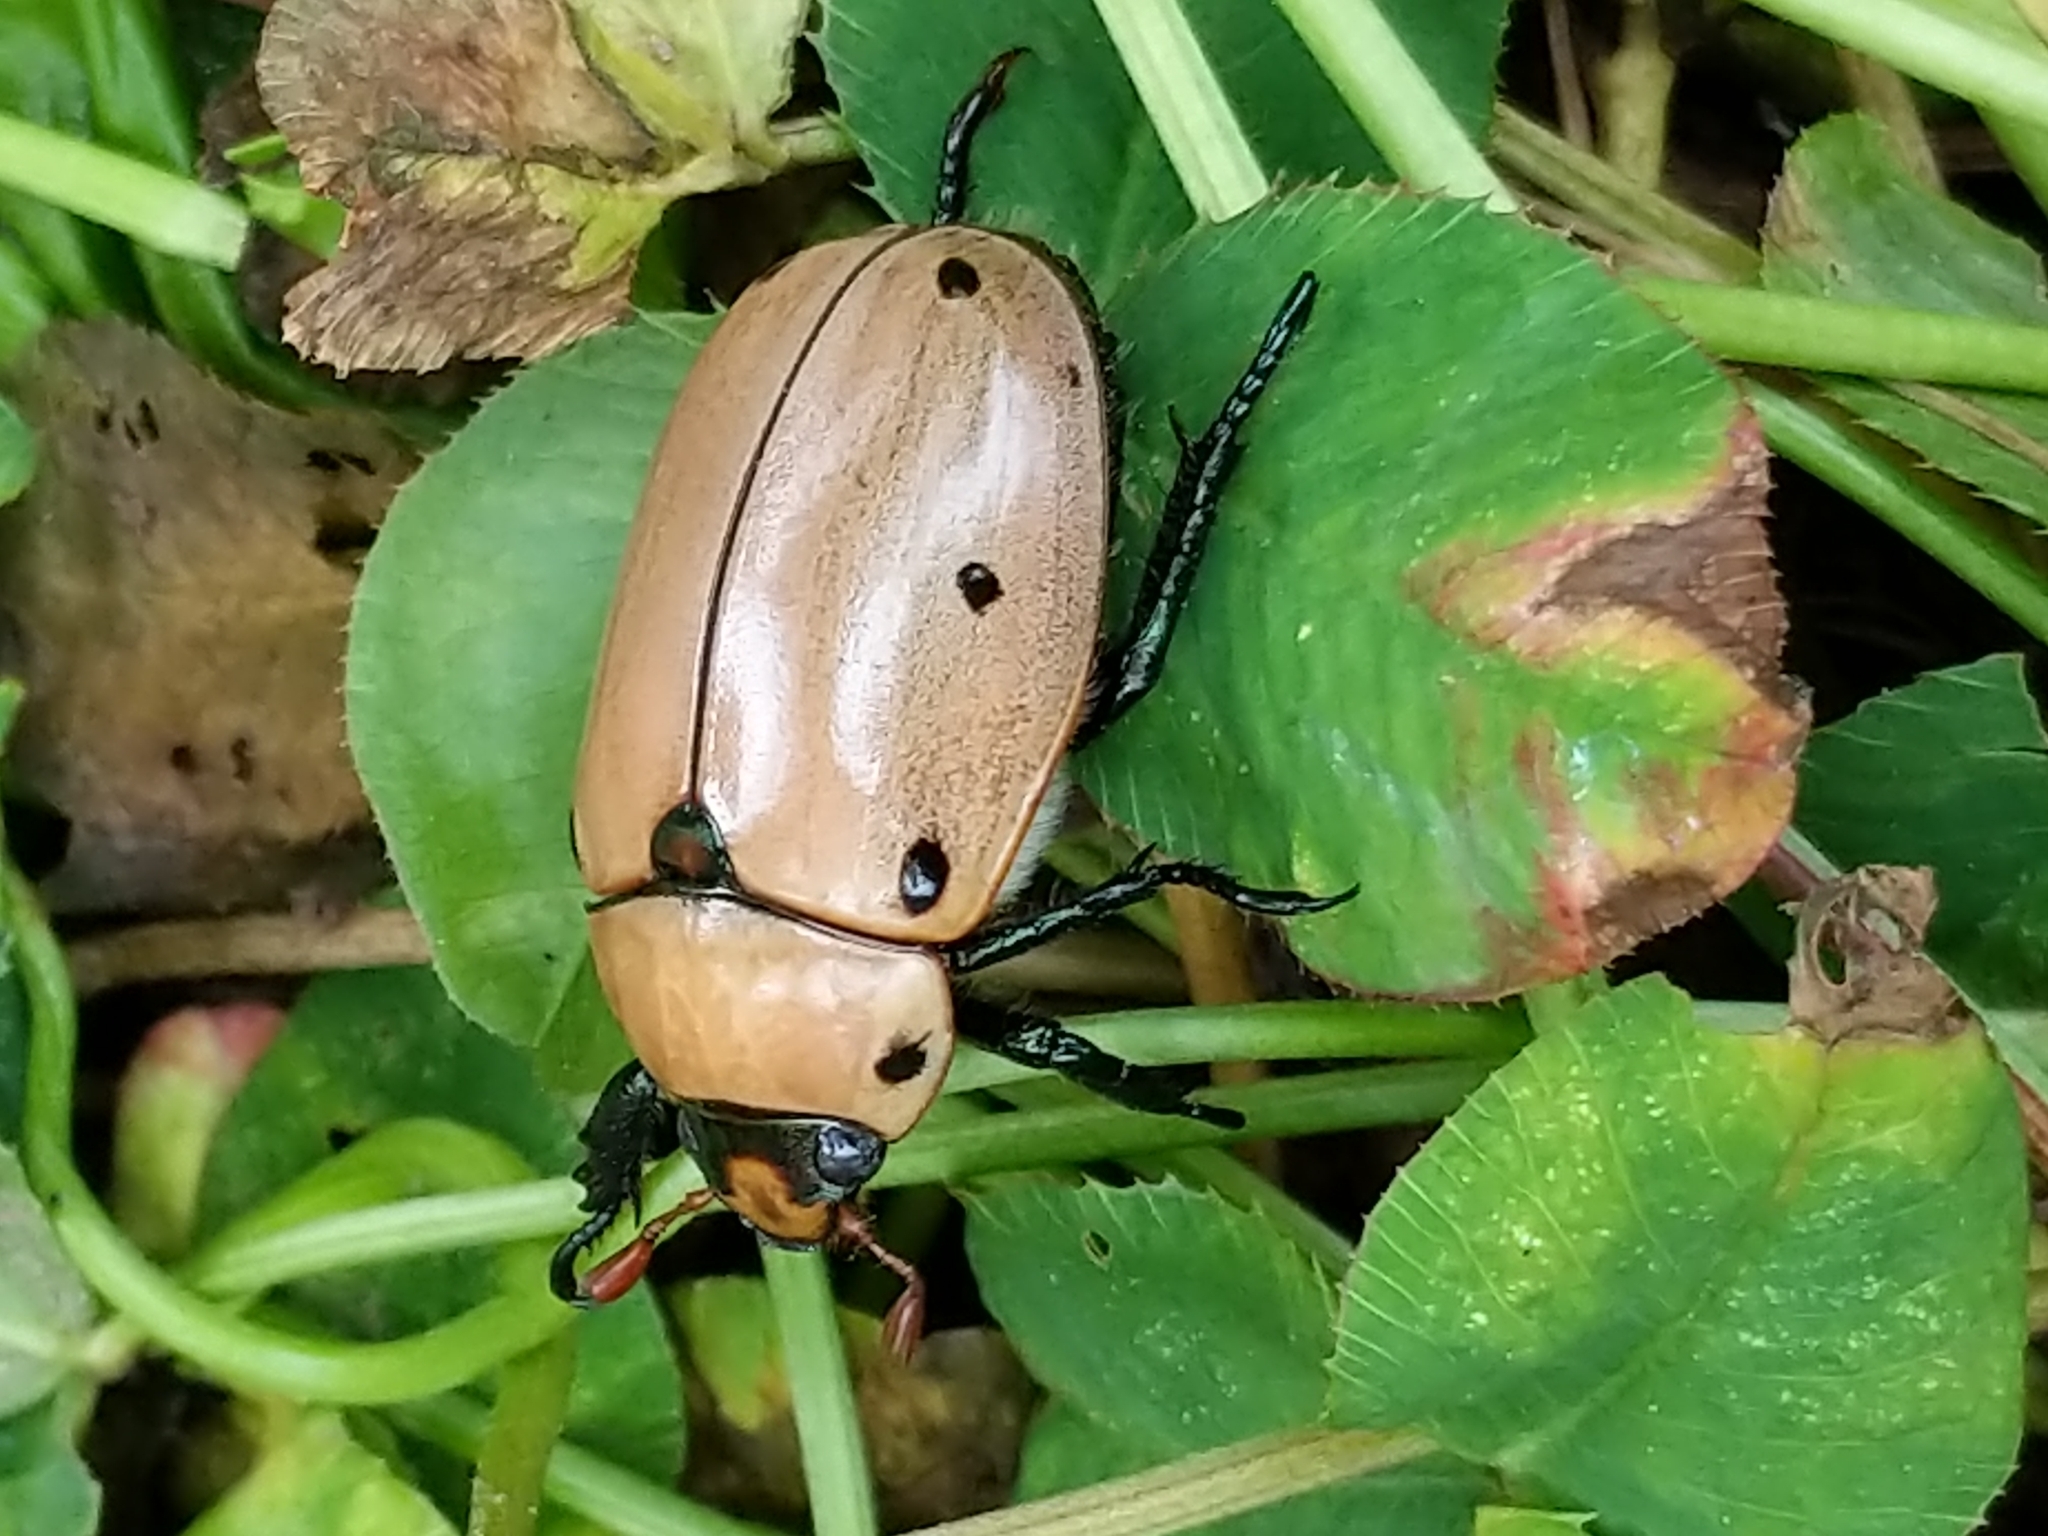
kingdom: Animalia
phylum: Arthropoda
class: Insecta
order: Coleoptera
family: Scarabaeidae
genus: Pelidnota
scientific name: Pelidnota punctata
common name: Grapevine beetle
